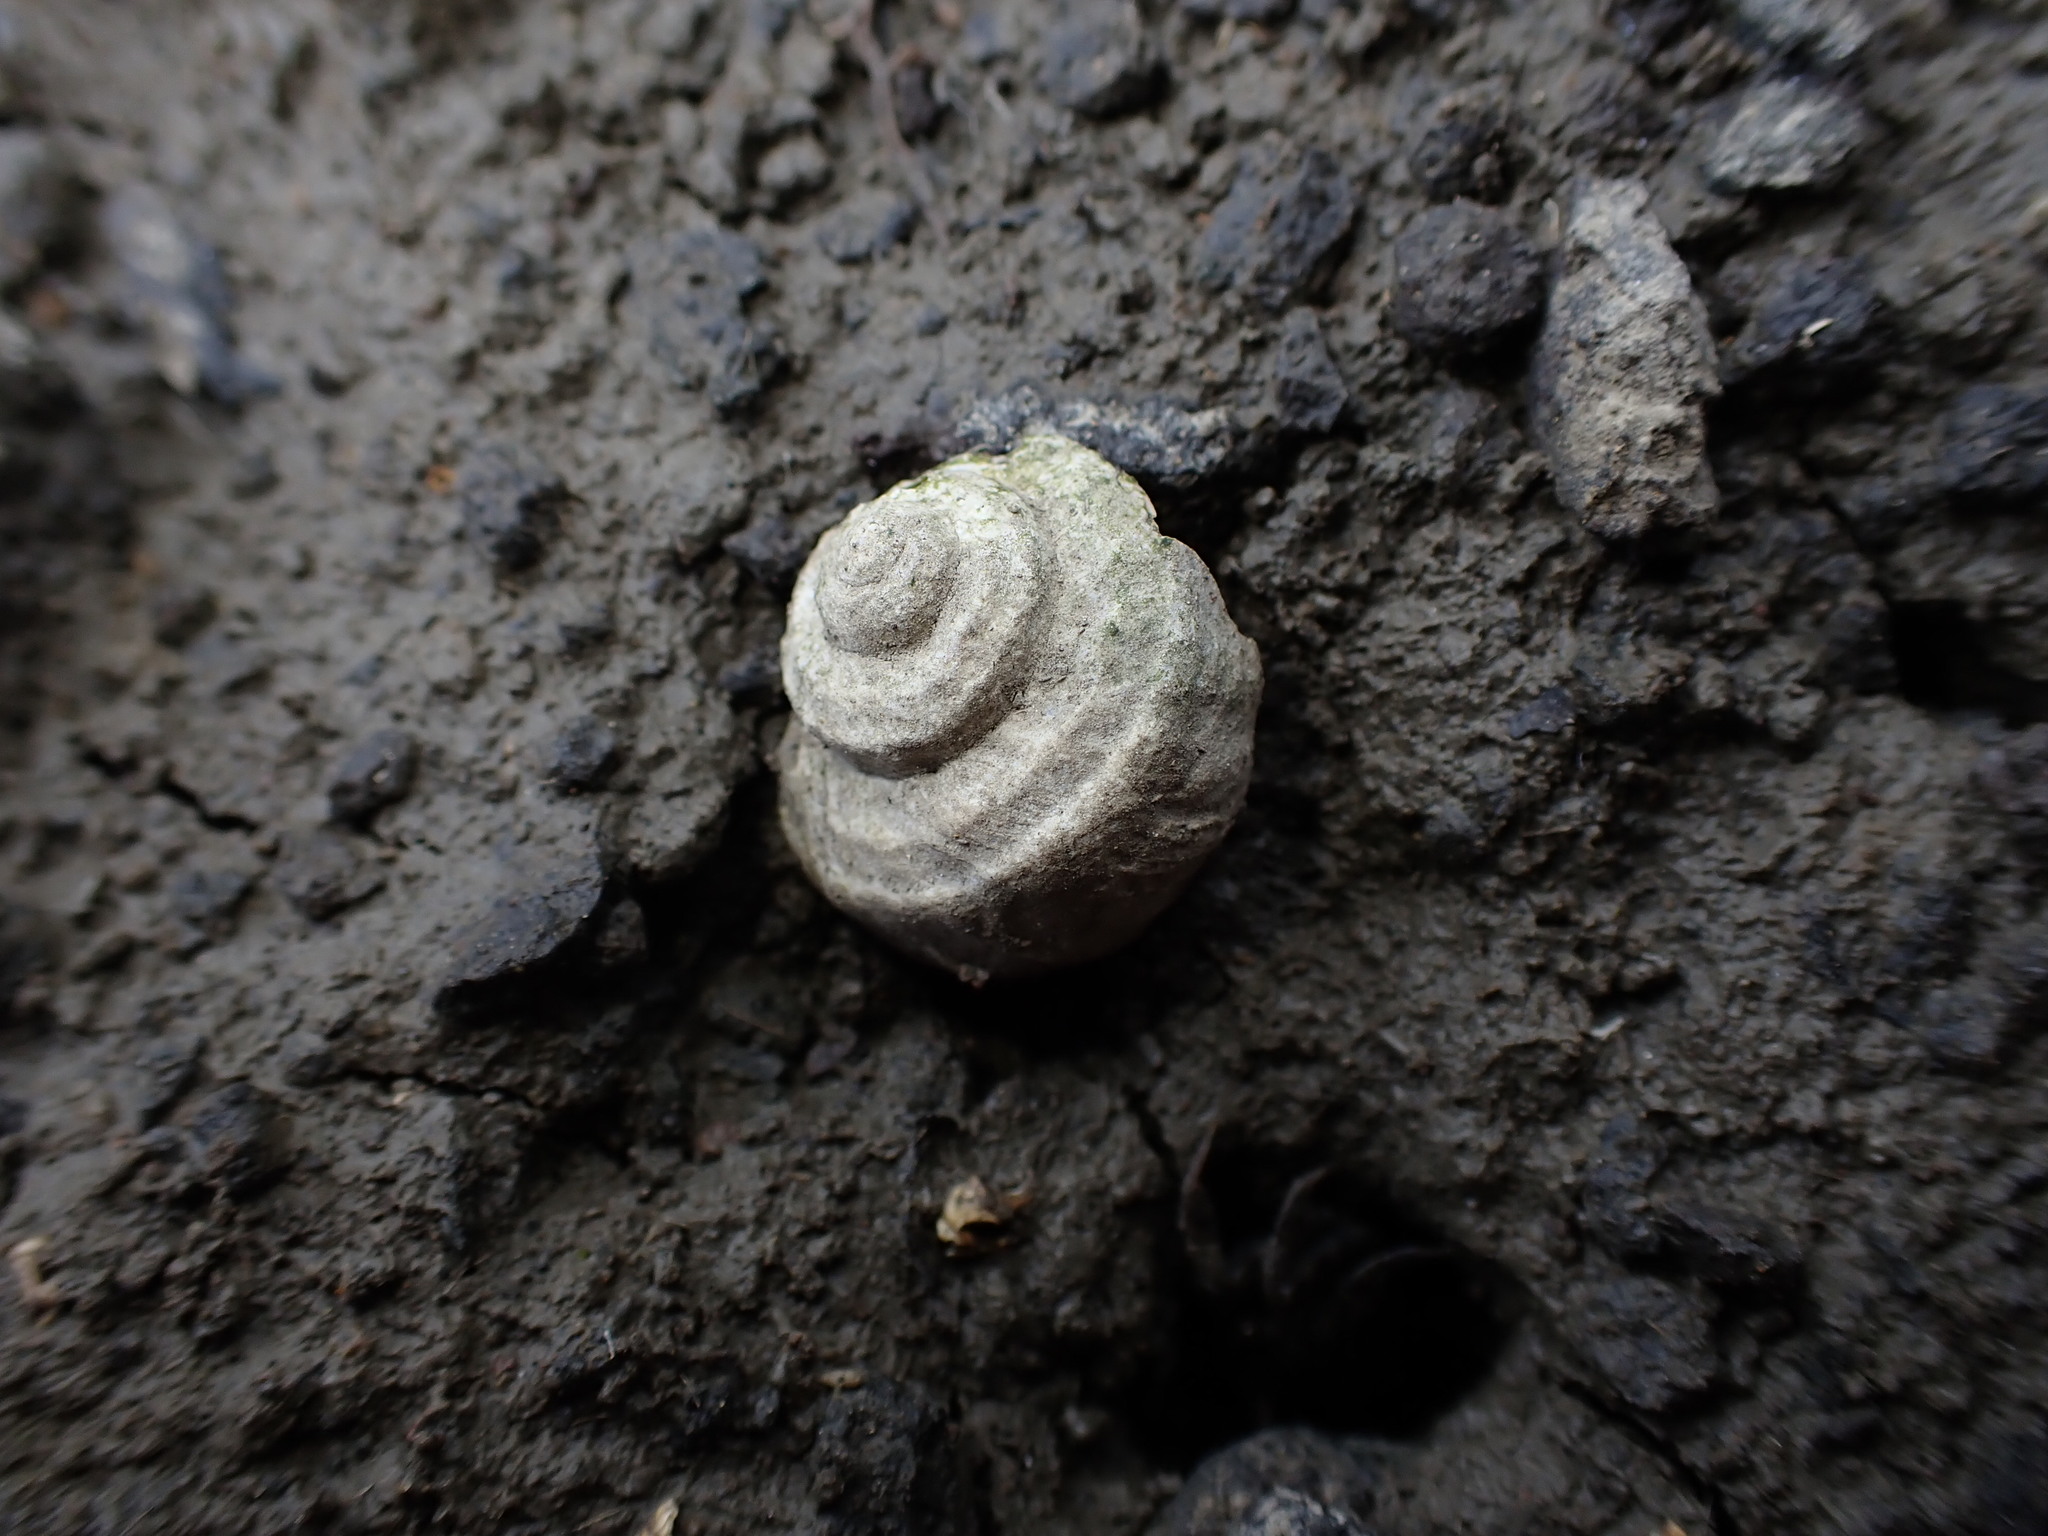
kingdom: Animalia
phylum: Mollusca
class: Gastropoda
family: Amphibolidae
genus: Amphibola
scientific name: Amphibola crenata
